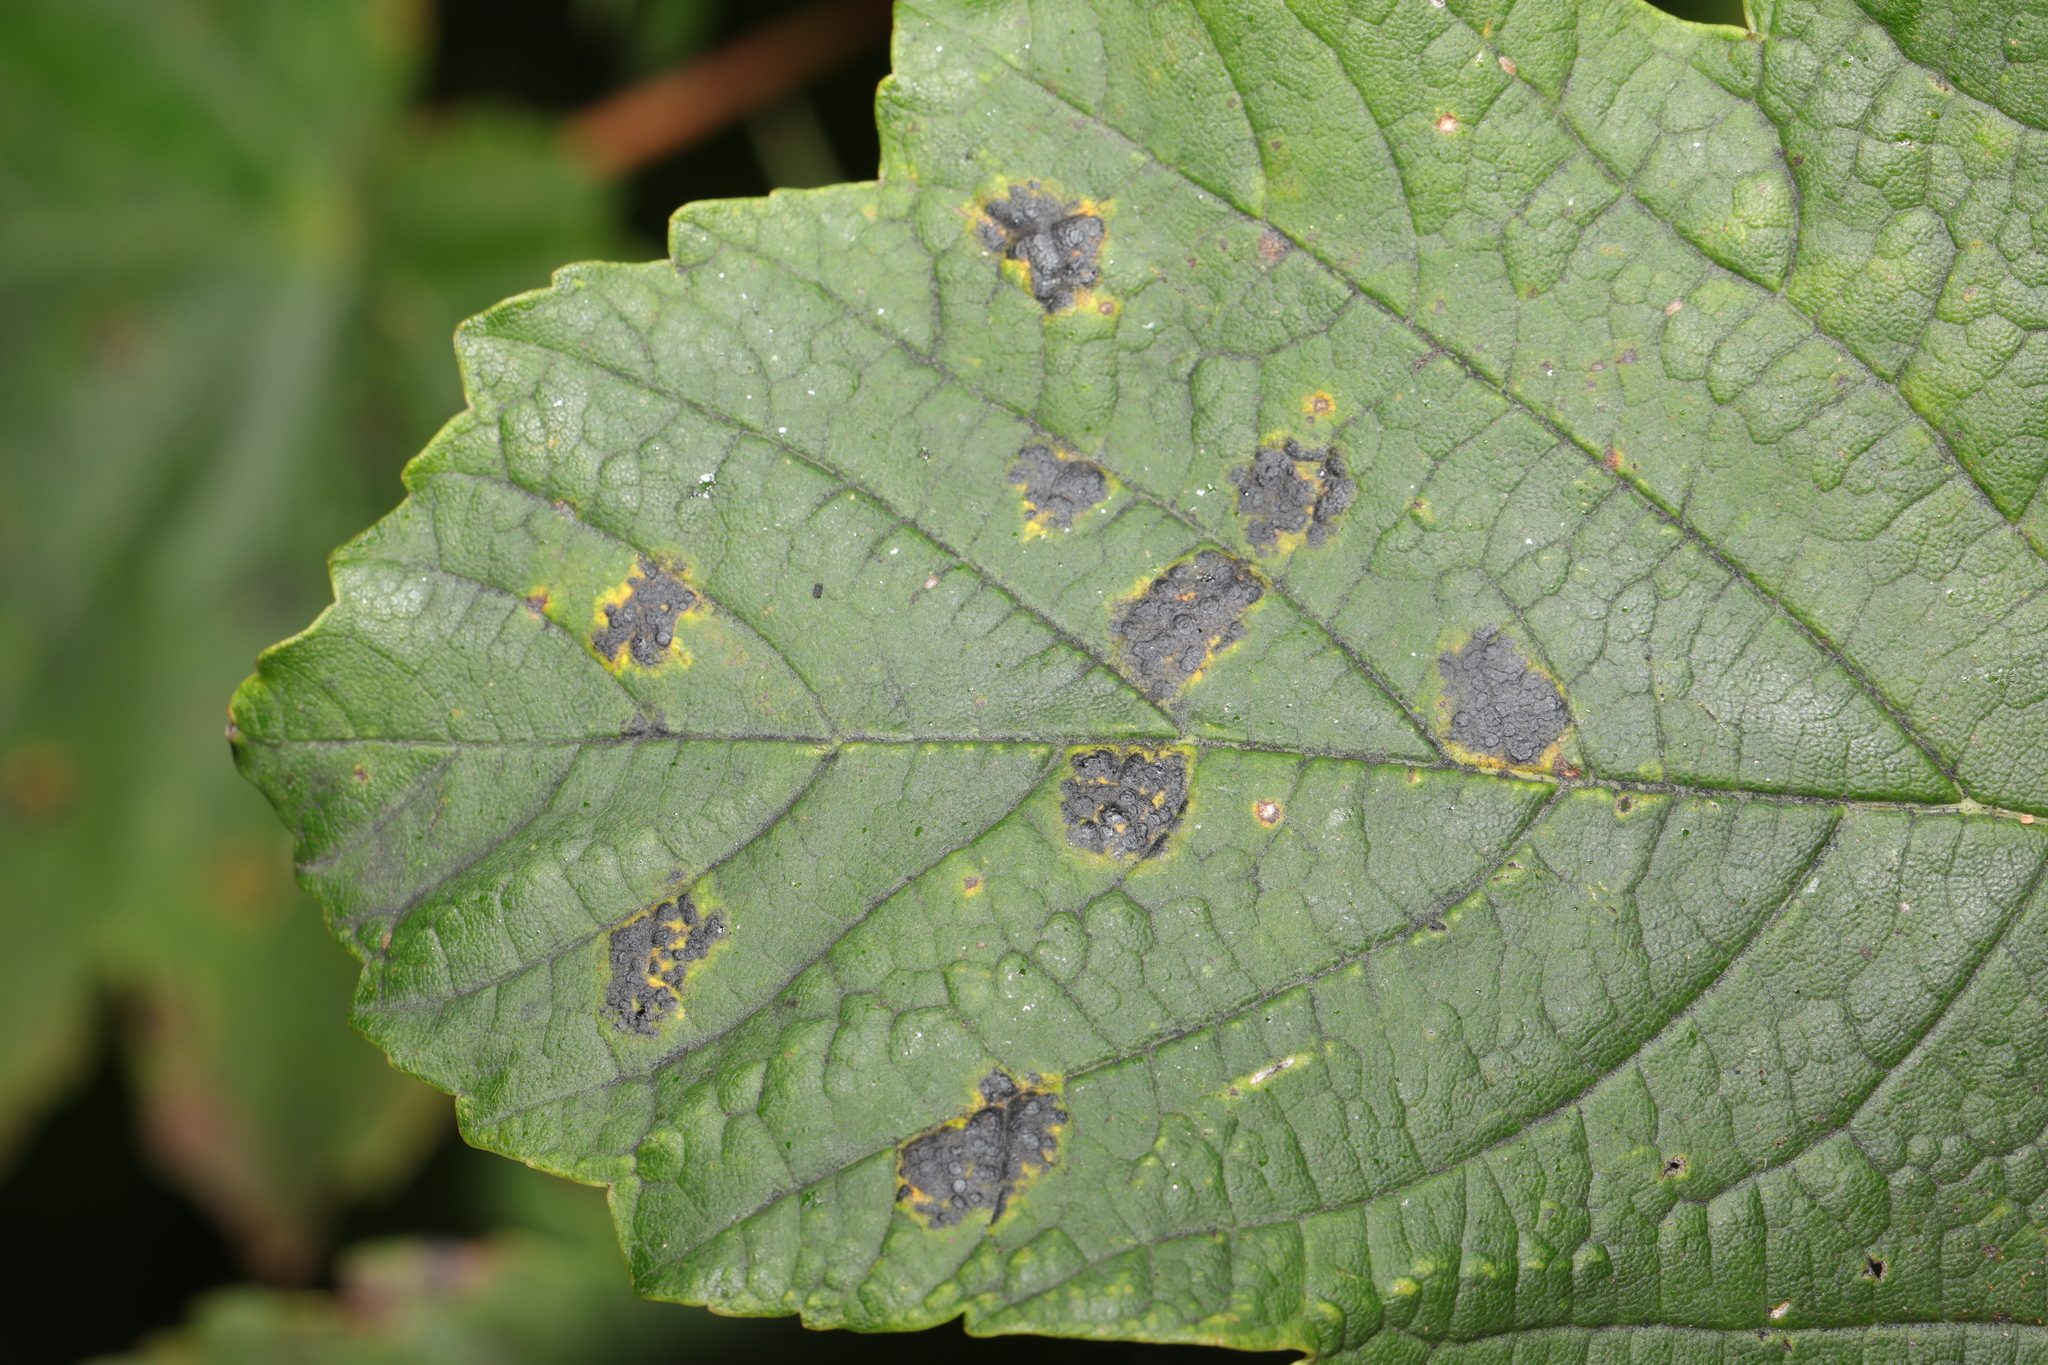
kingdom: Fungi
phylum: Ascomycota
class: Leotiomycetes
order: Rhytismatales
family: Rhytismataceae
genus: Rhytisma
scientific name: Rhytisma acerinum
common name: European tar spot
